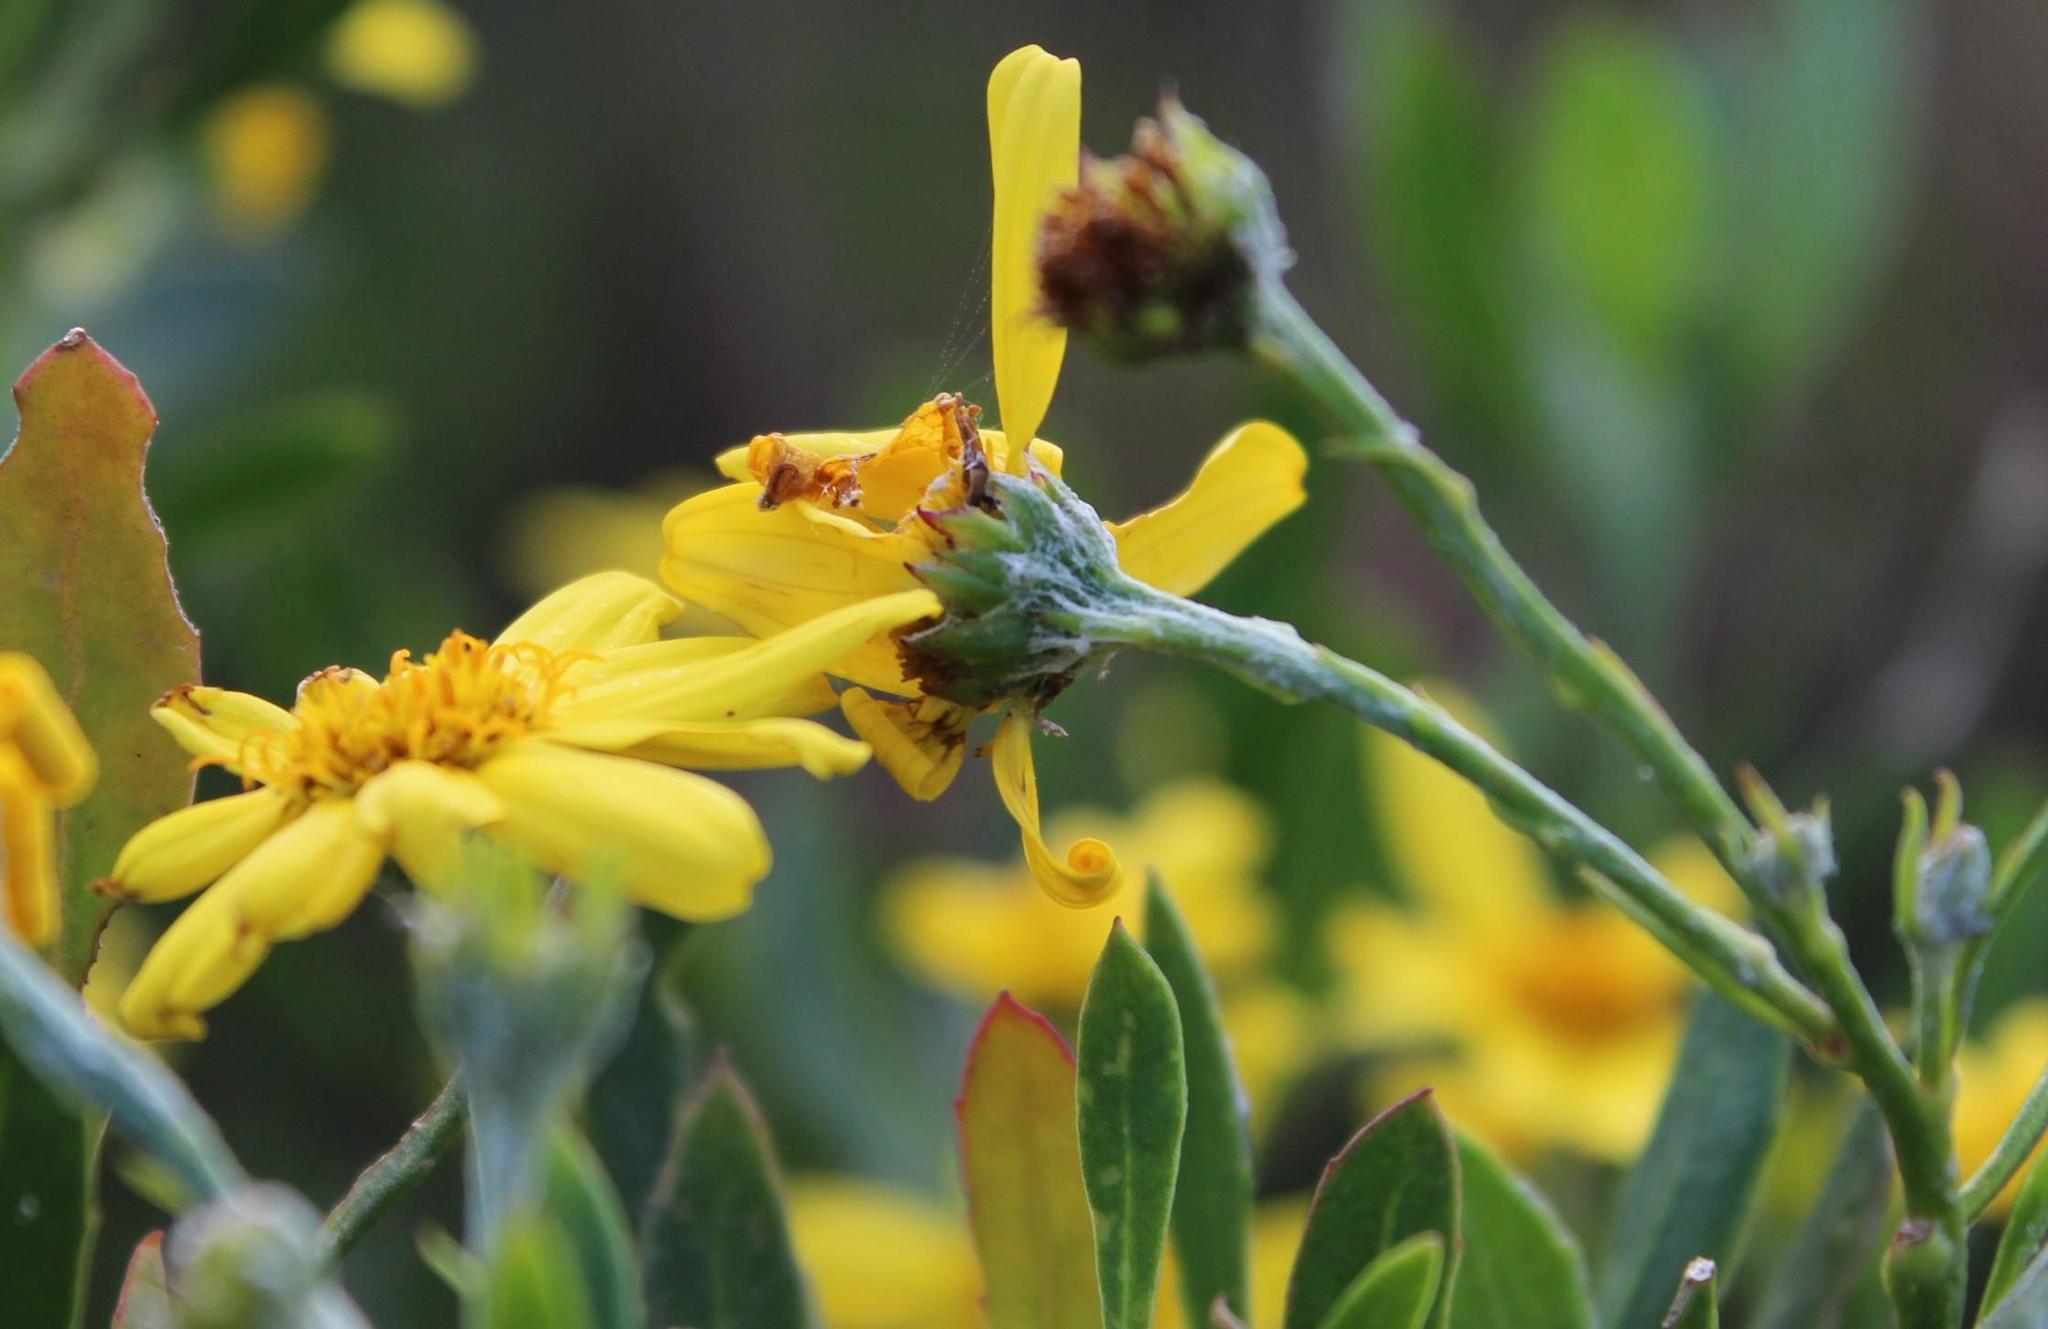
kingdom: Plantae
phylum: Tracheophyta
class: Magnoliopsida
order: Asterales
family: Asteraceae
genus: Osteospermum
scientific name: Osteospermum moniliferum
